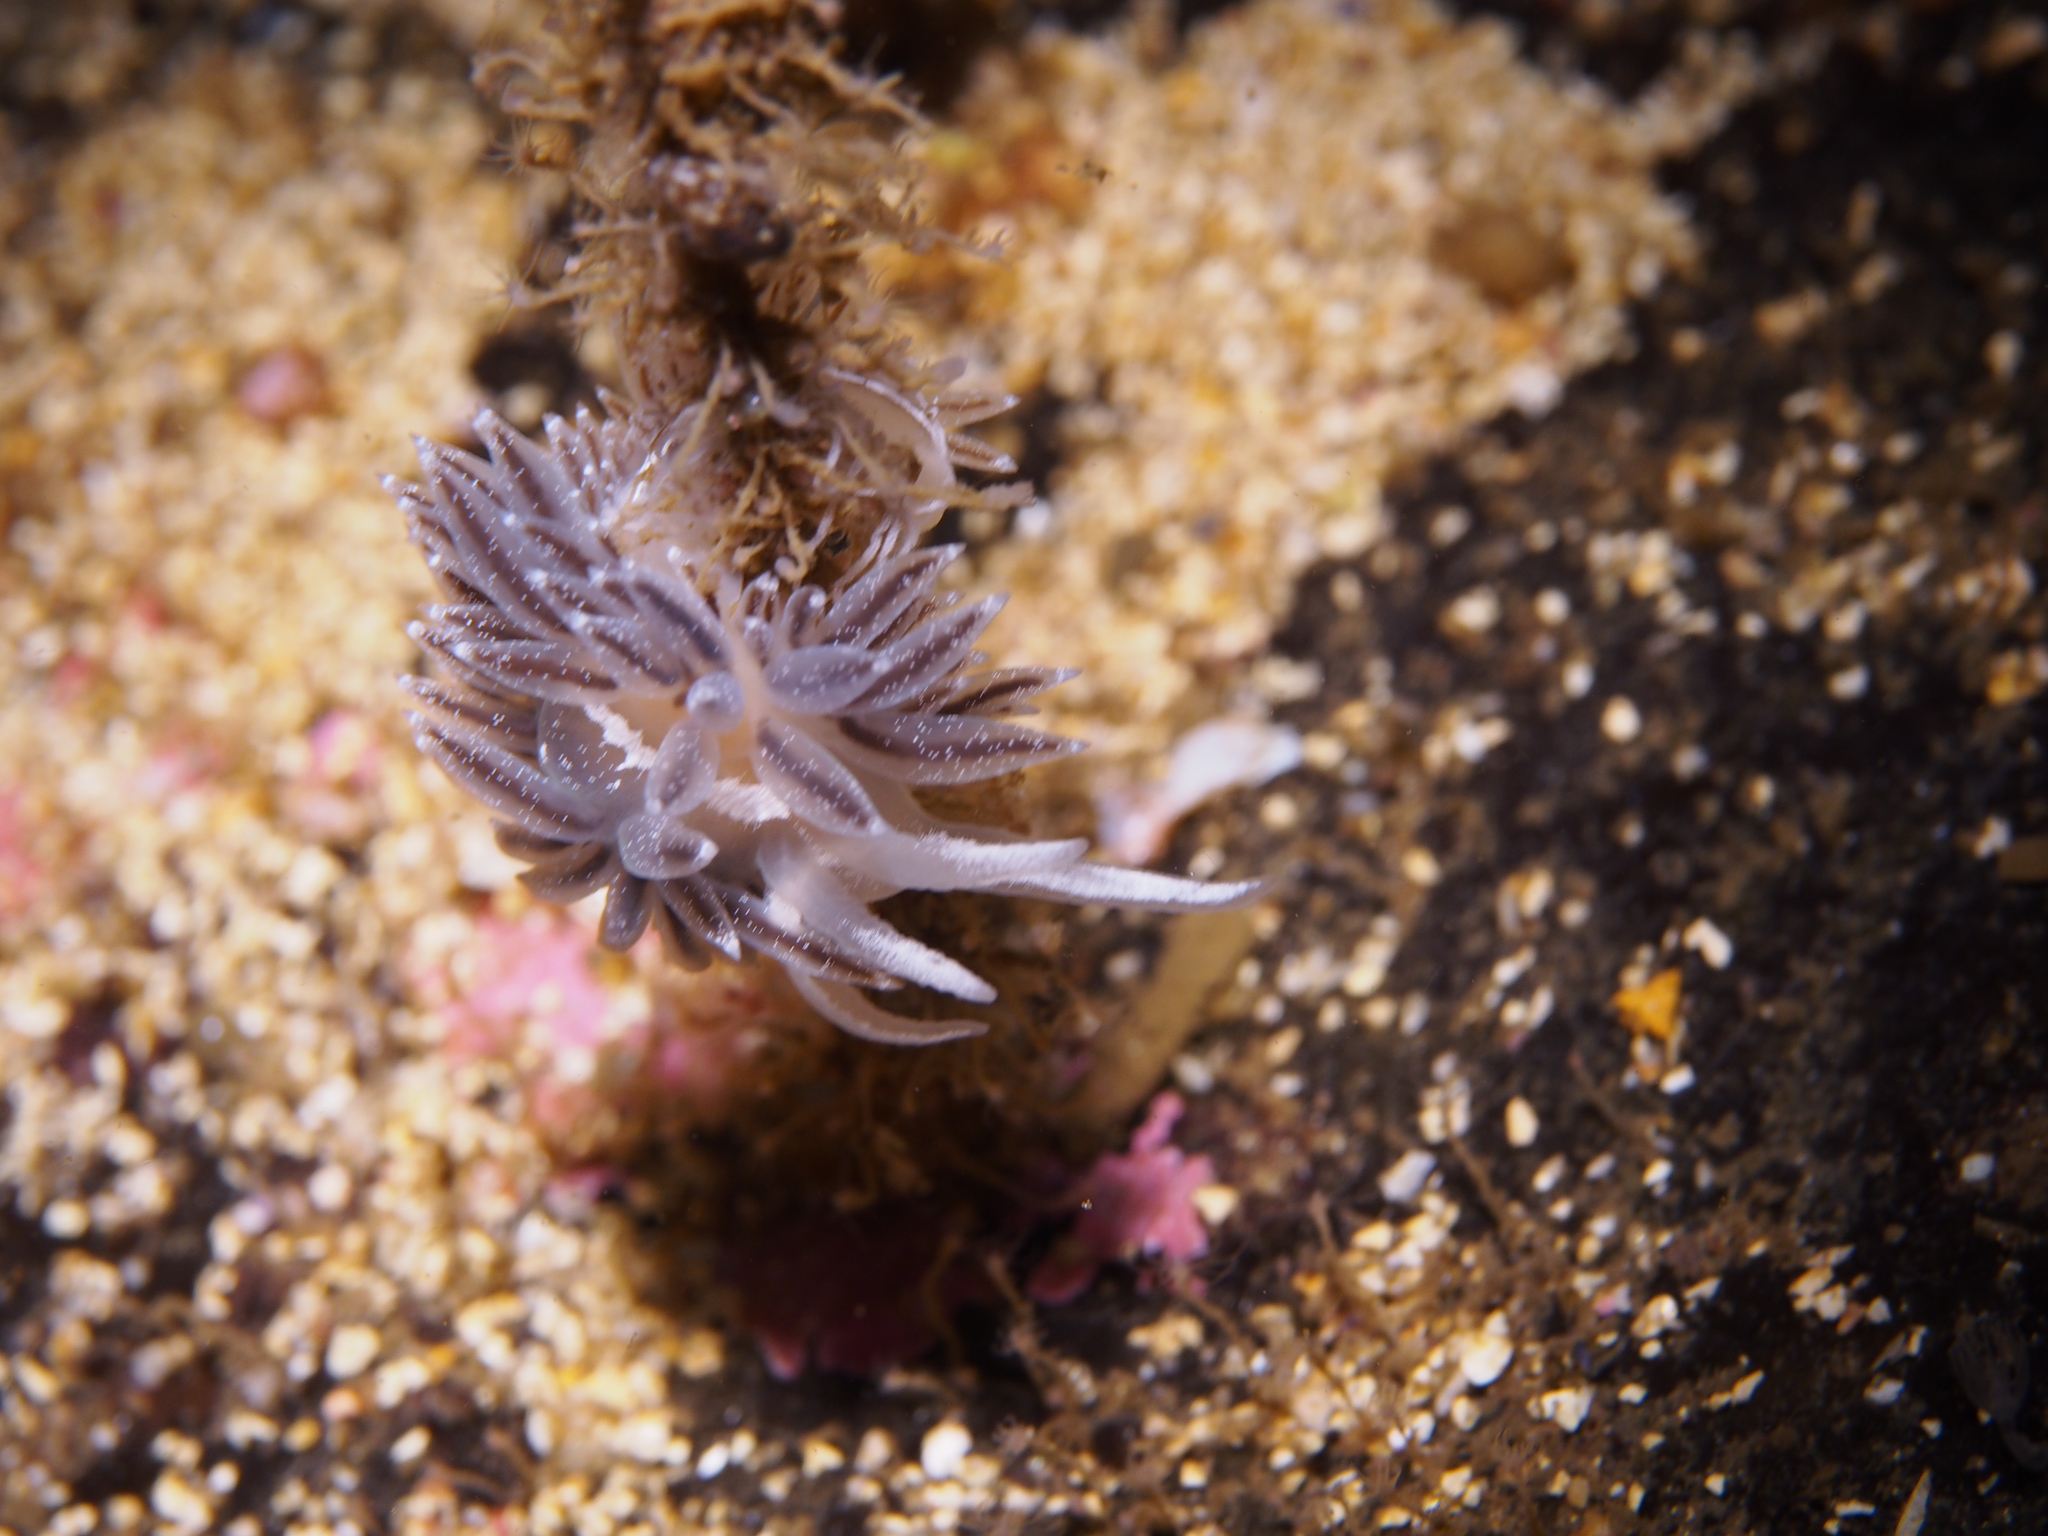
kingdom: Animalia
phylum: Mollusca
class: Gastropoda
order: Nudibranchia
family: Coryphellidae
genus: Coryphella
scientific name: Coryphella orjani
